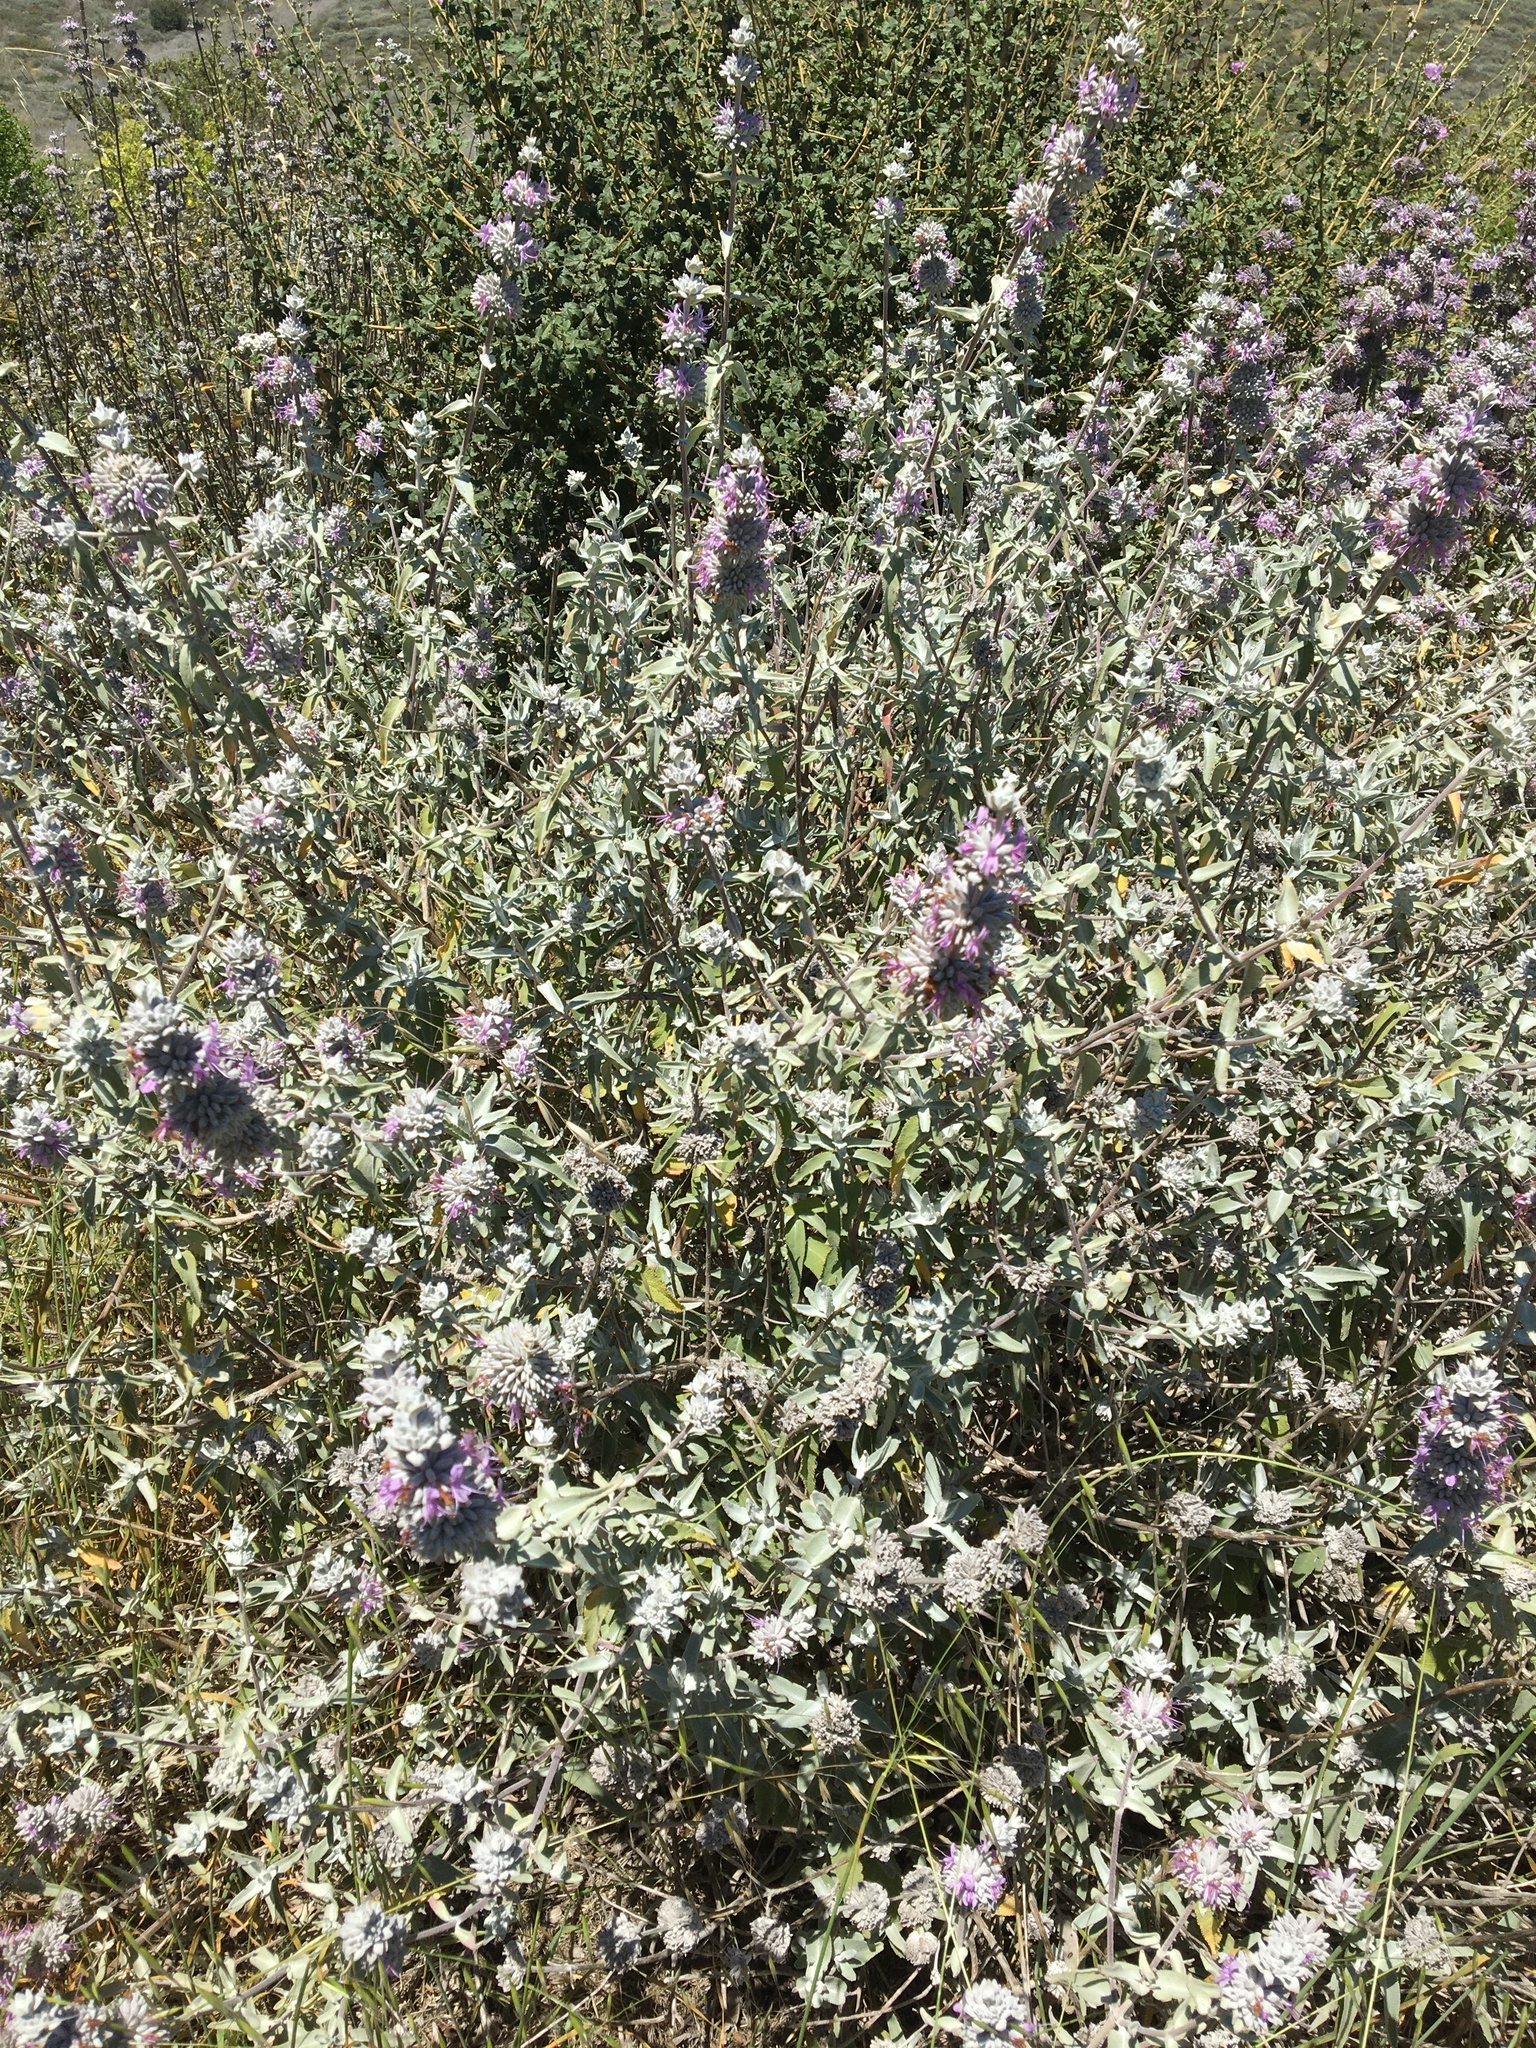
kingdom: Plantae
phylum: Tracheophyta
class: Magnoliopsida
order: Lamiales
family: Lamiaceae
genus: Salvia
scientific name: Salvia leucophylla
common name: Purple sage
